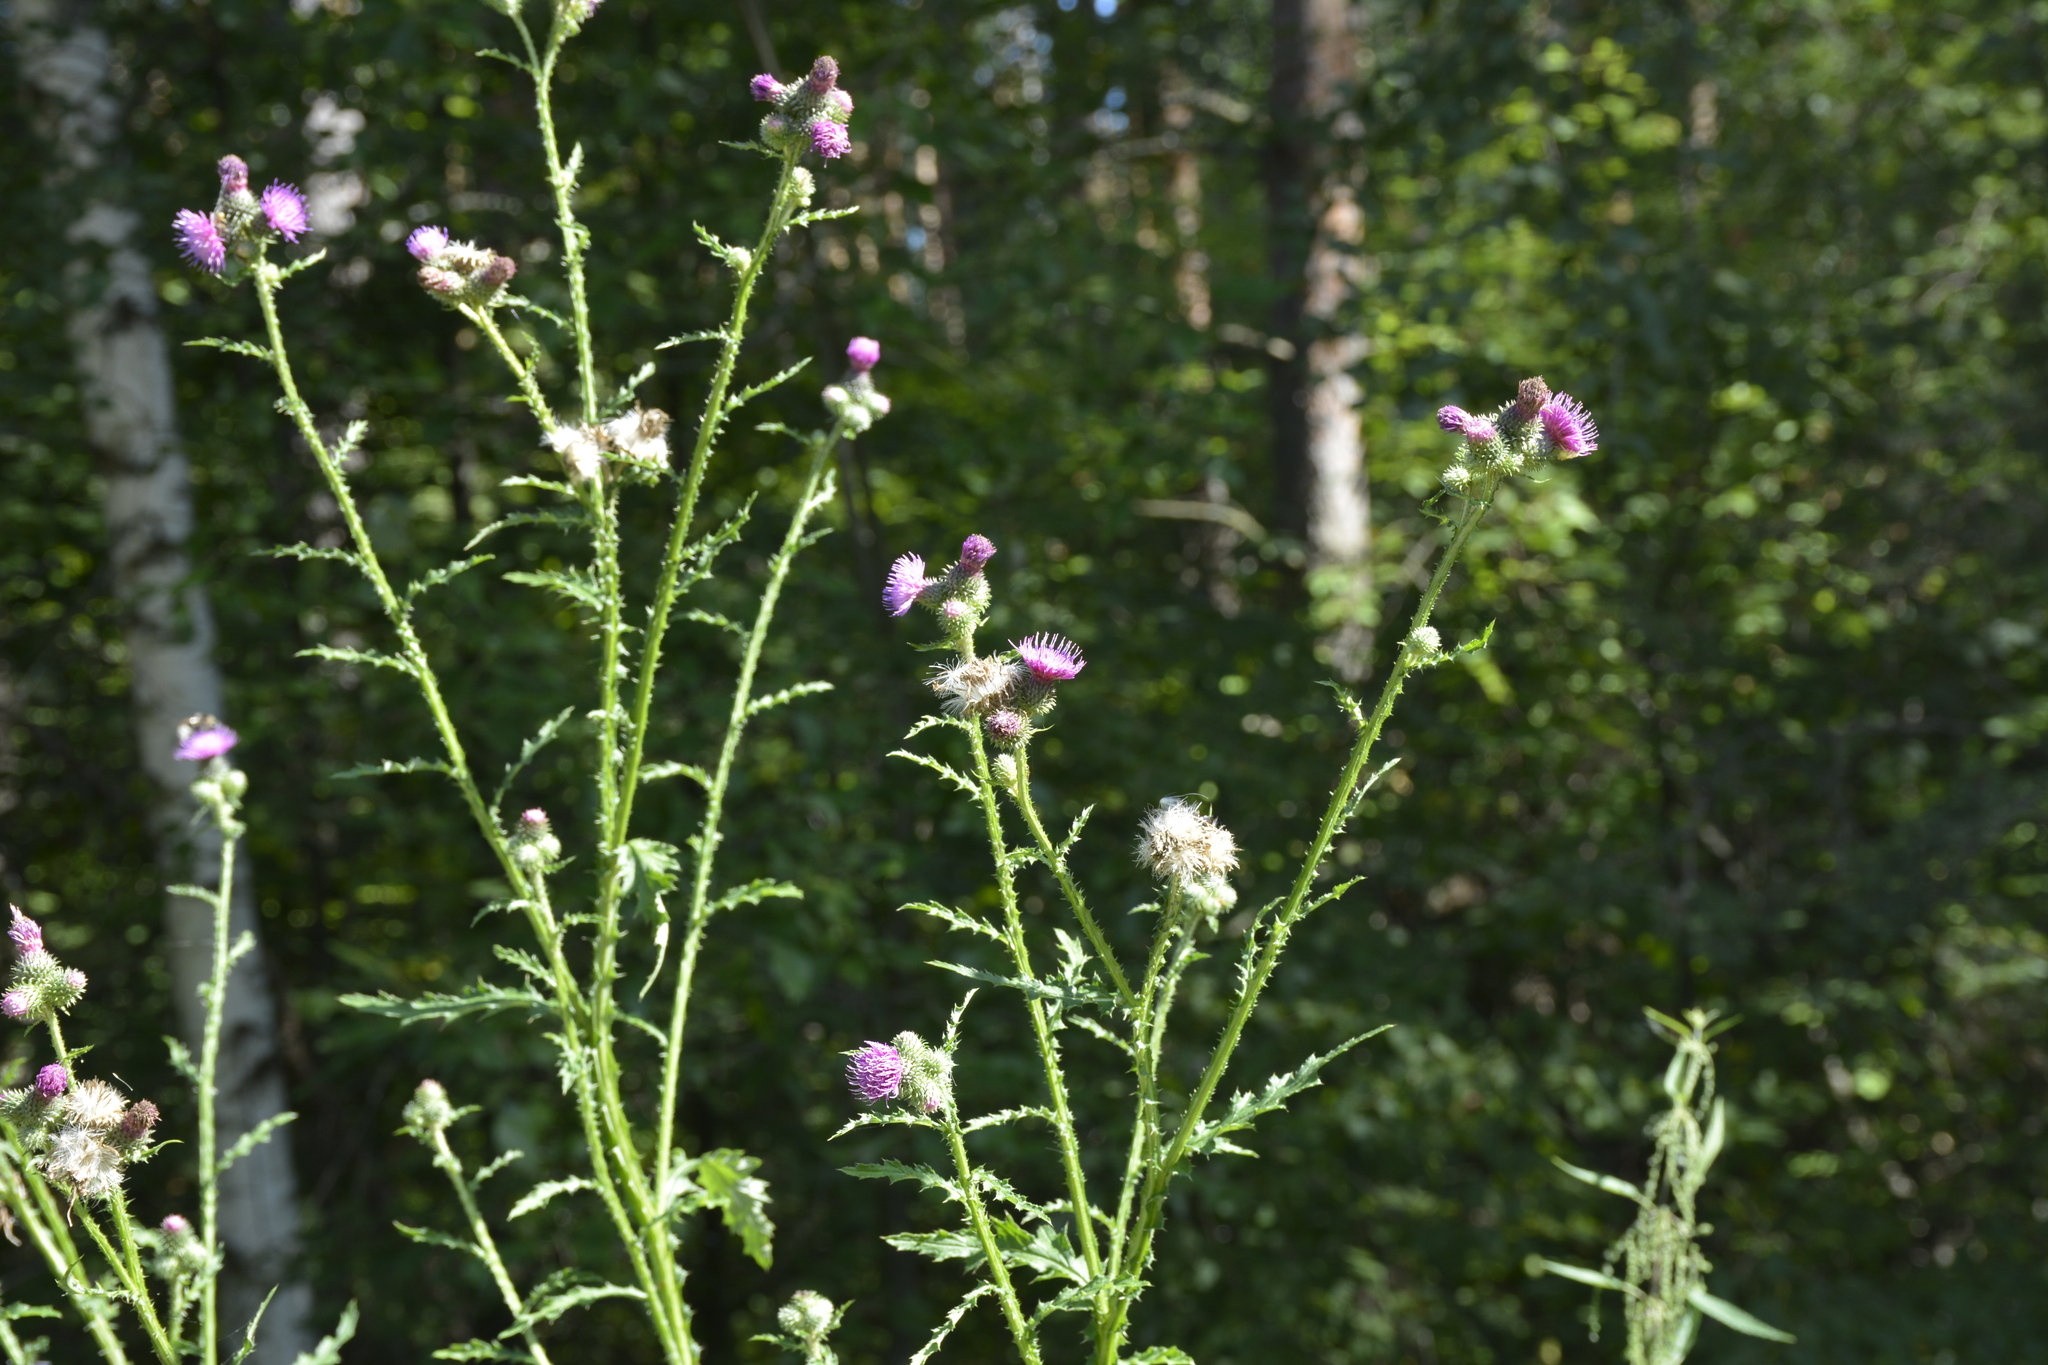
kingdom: Plantae
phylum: Tracheophyta
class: Magnoliopsida
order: Asterales
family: Asteraceae
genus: Carduus
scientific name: Carduus crispus
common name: Welted thistle
